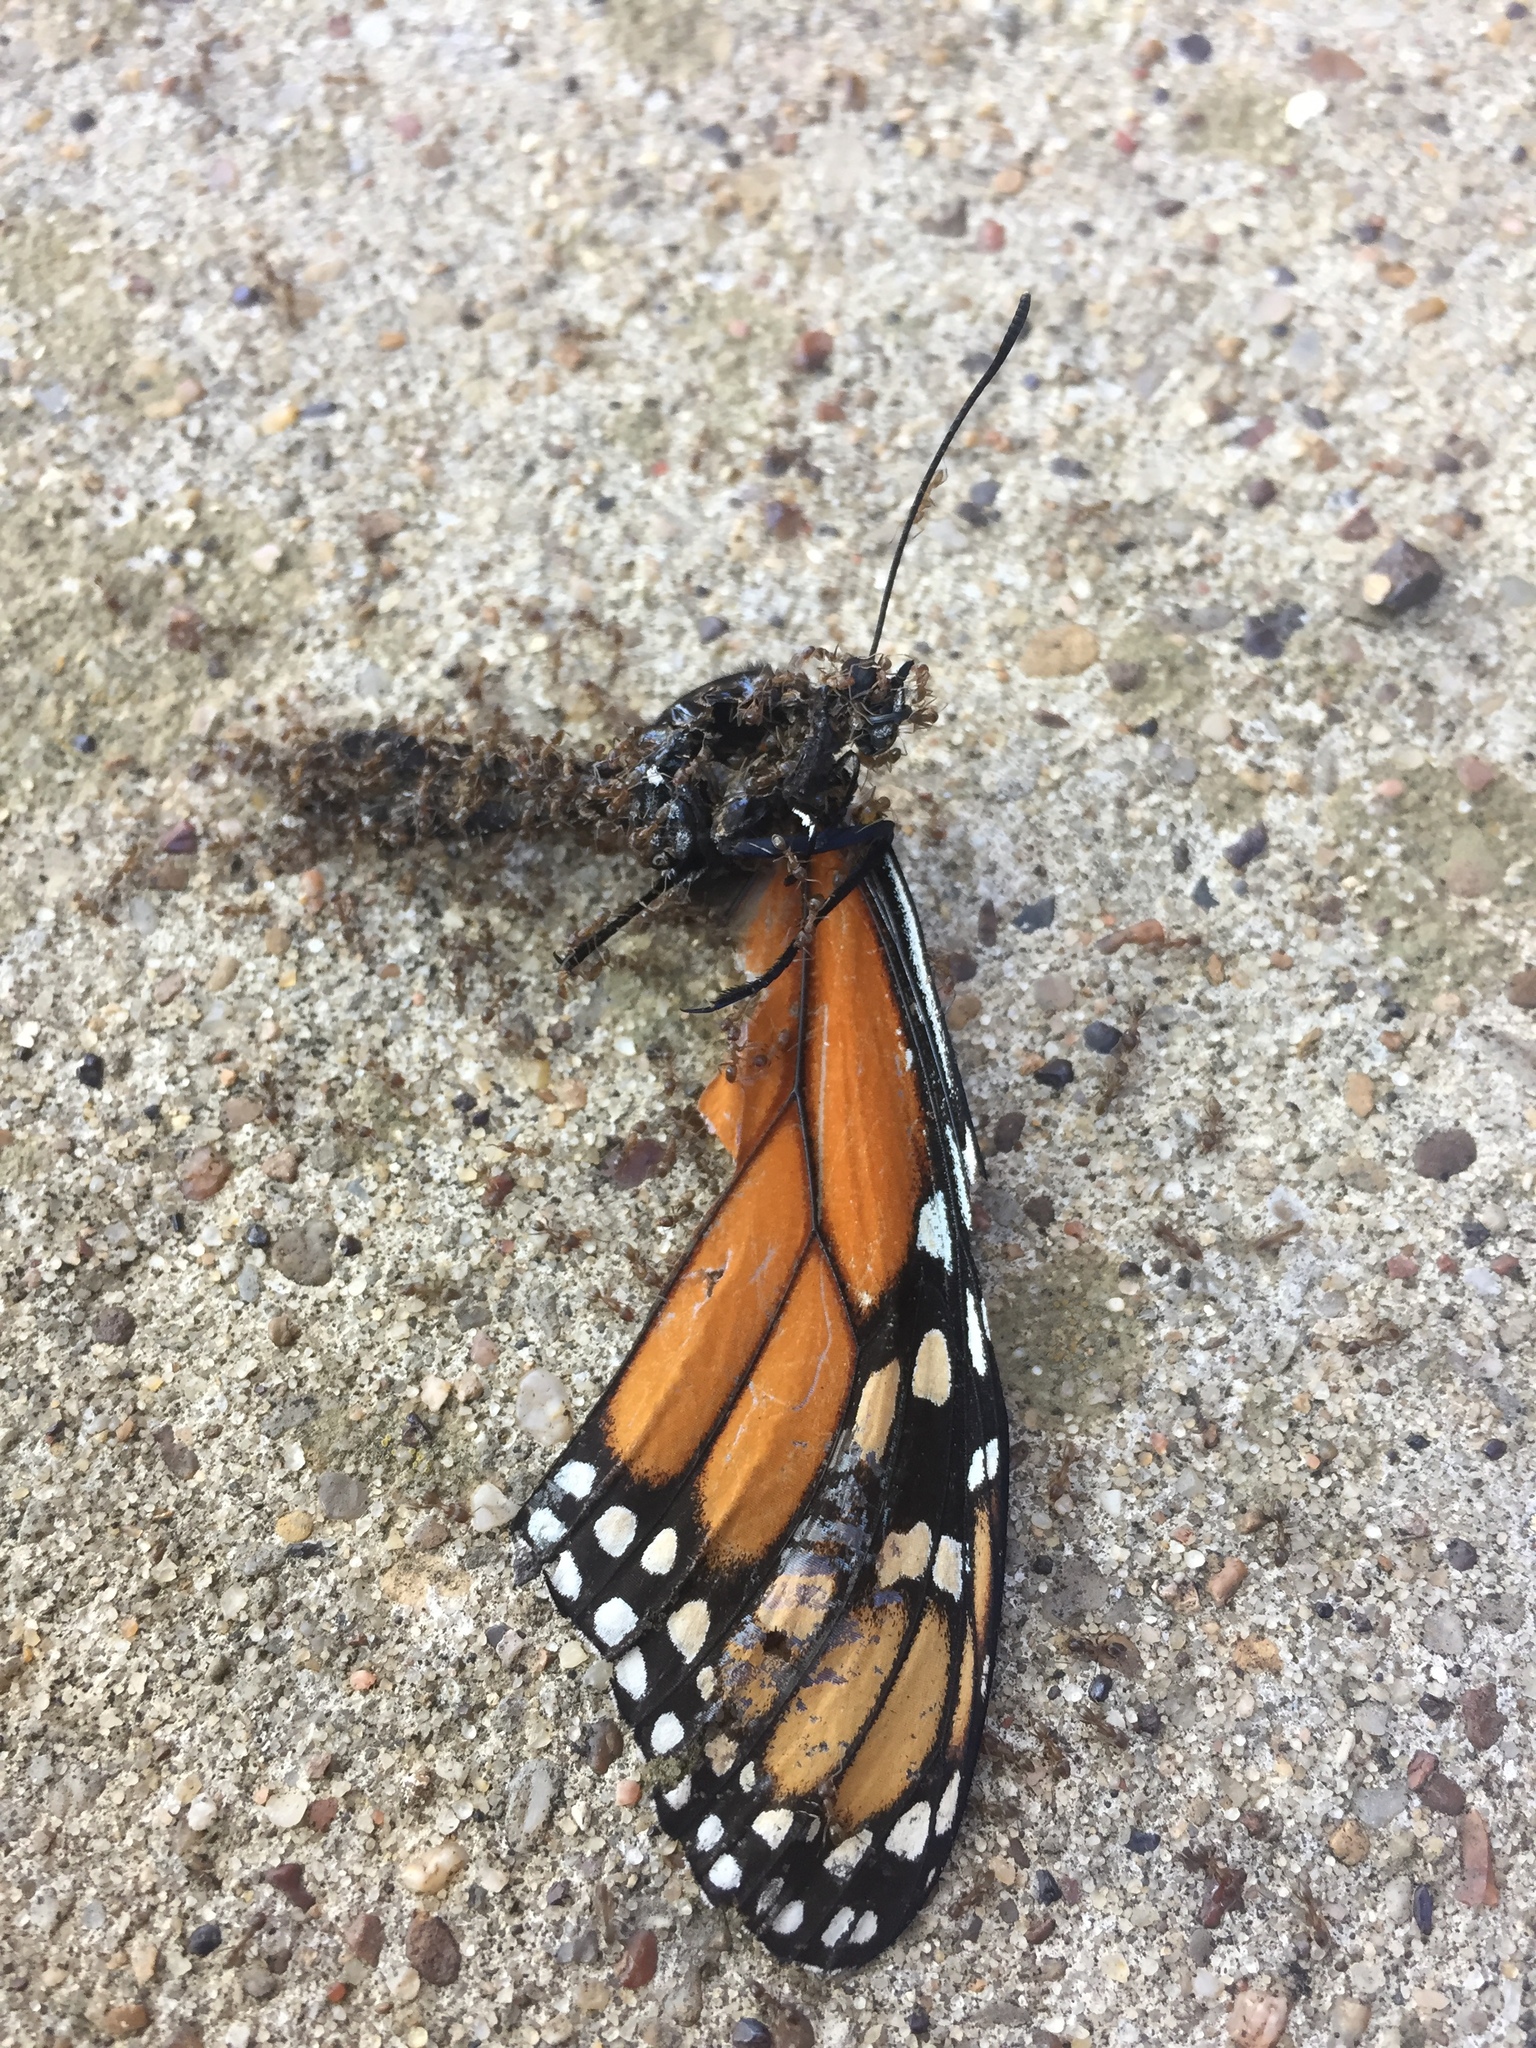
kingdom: Animalia
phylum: Arthropoda
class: Insecta
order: Lepidoptera
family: Nymphalidae
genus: Danaus
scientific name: Danaus plexippus
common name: Monarch
